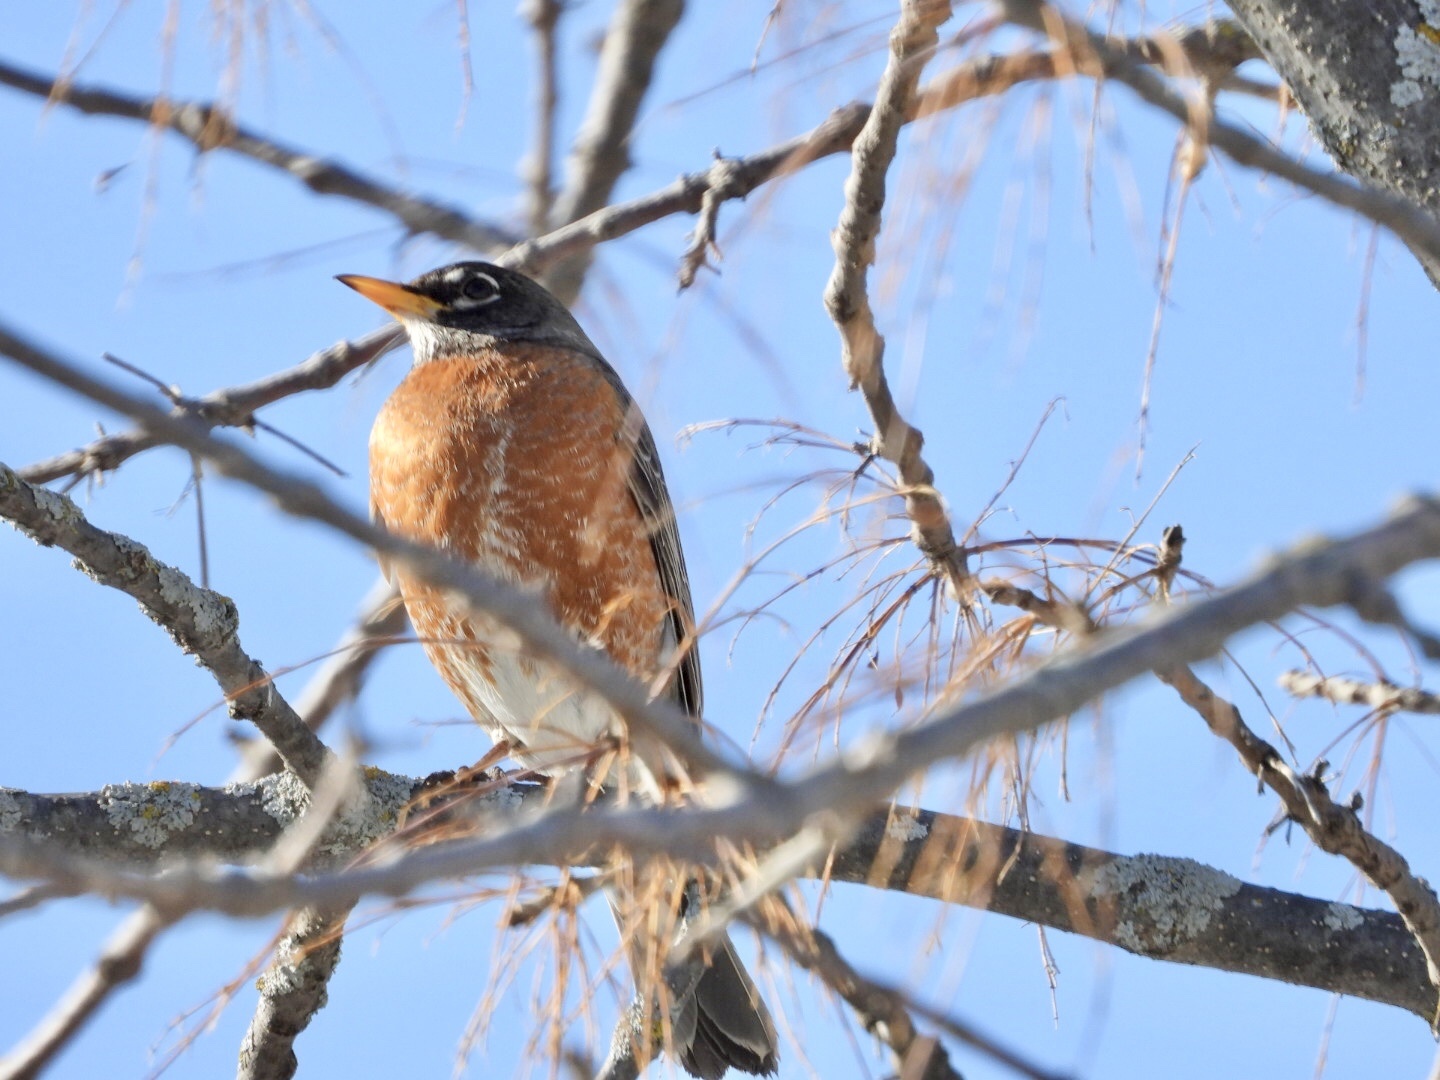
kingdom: Animalia
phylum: Chordata
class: Aves
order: Passeriformes
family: Turdidae
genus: Turdus
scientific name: Turdus migratorius
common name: American robin
